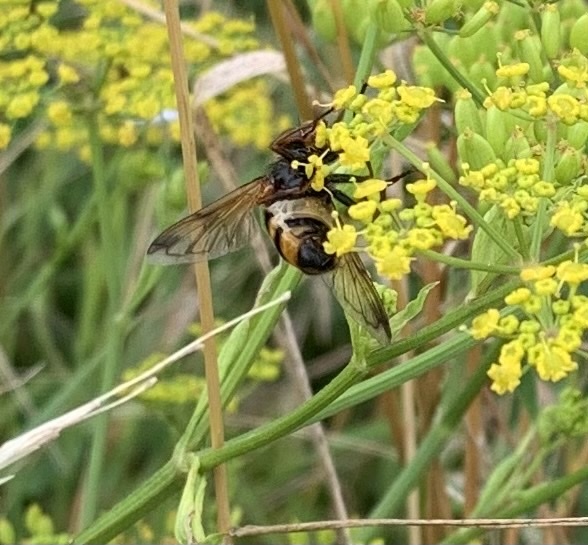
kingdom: Animalia
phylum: Arthropoda
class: Insecta
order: Diptera
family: Syrphidae
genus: Volucella
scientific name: Volucella inanis
